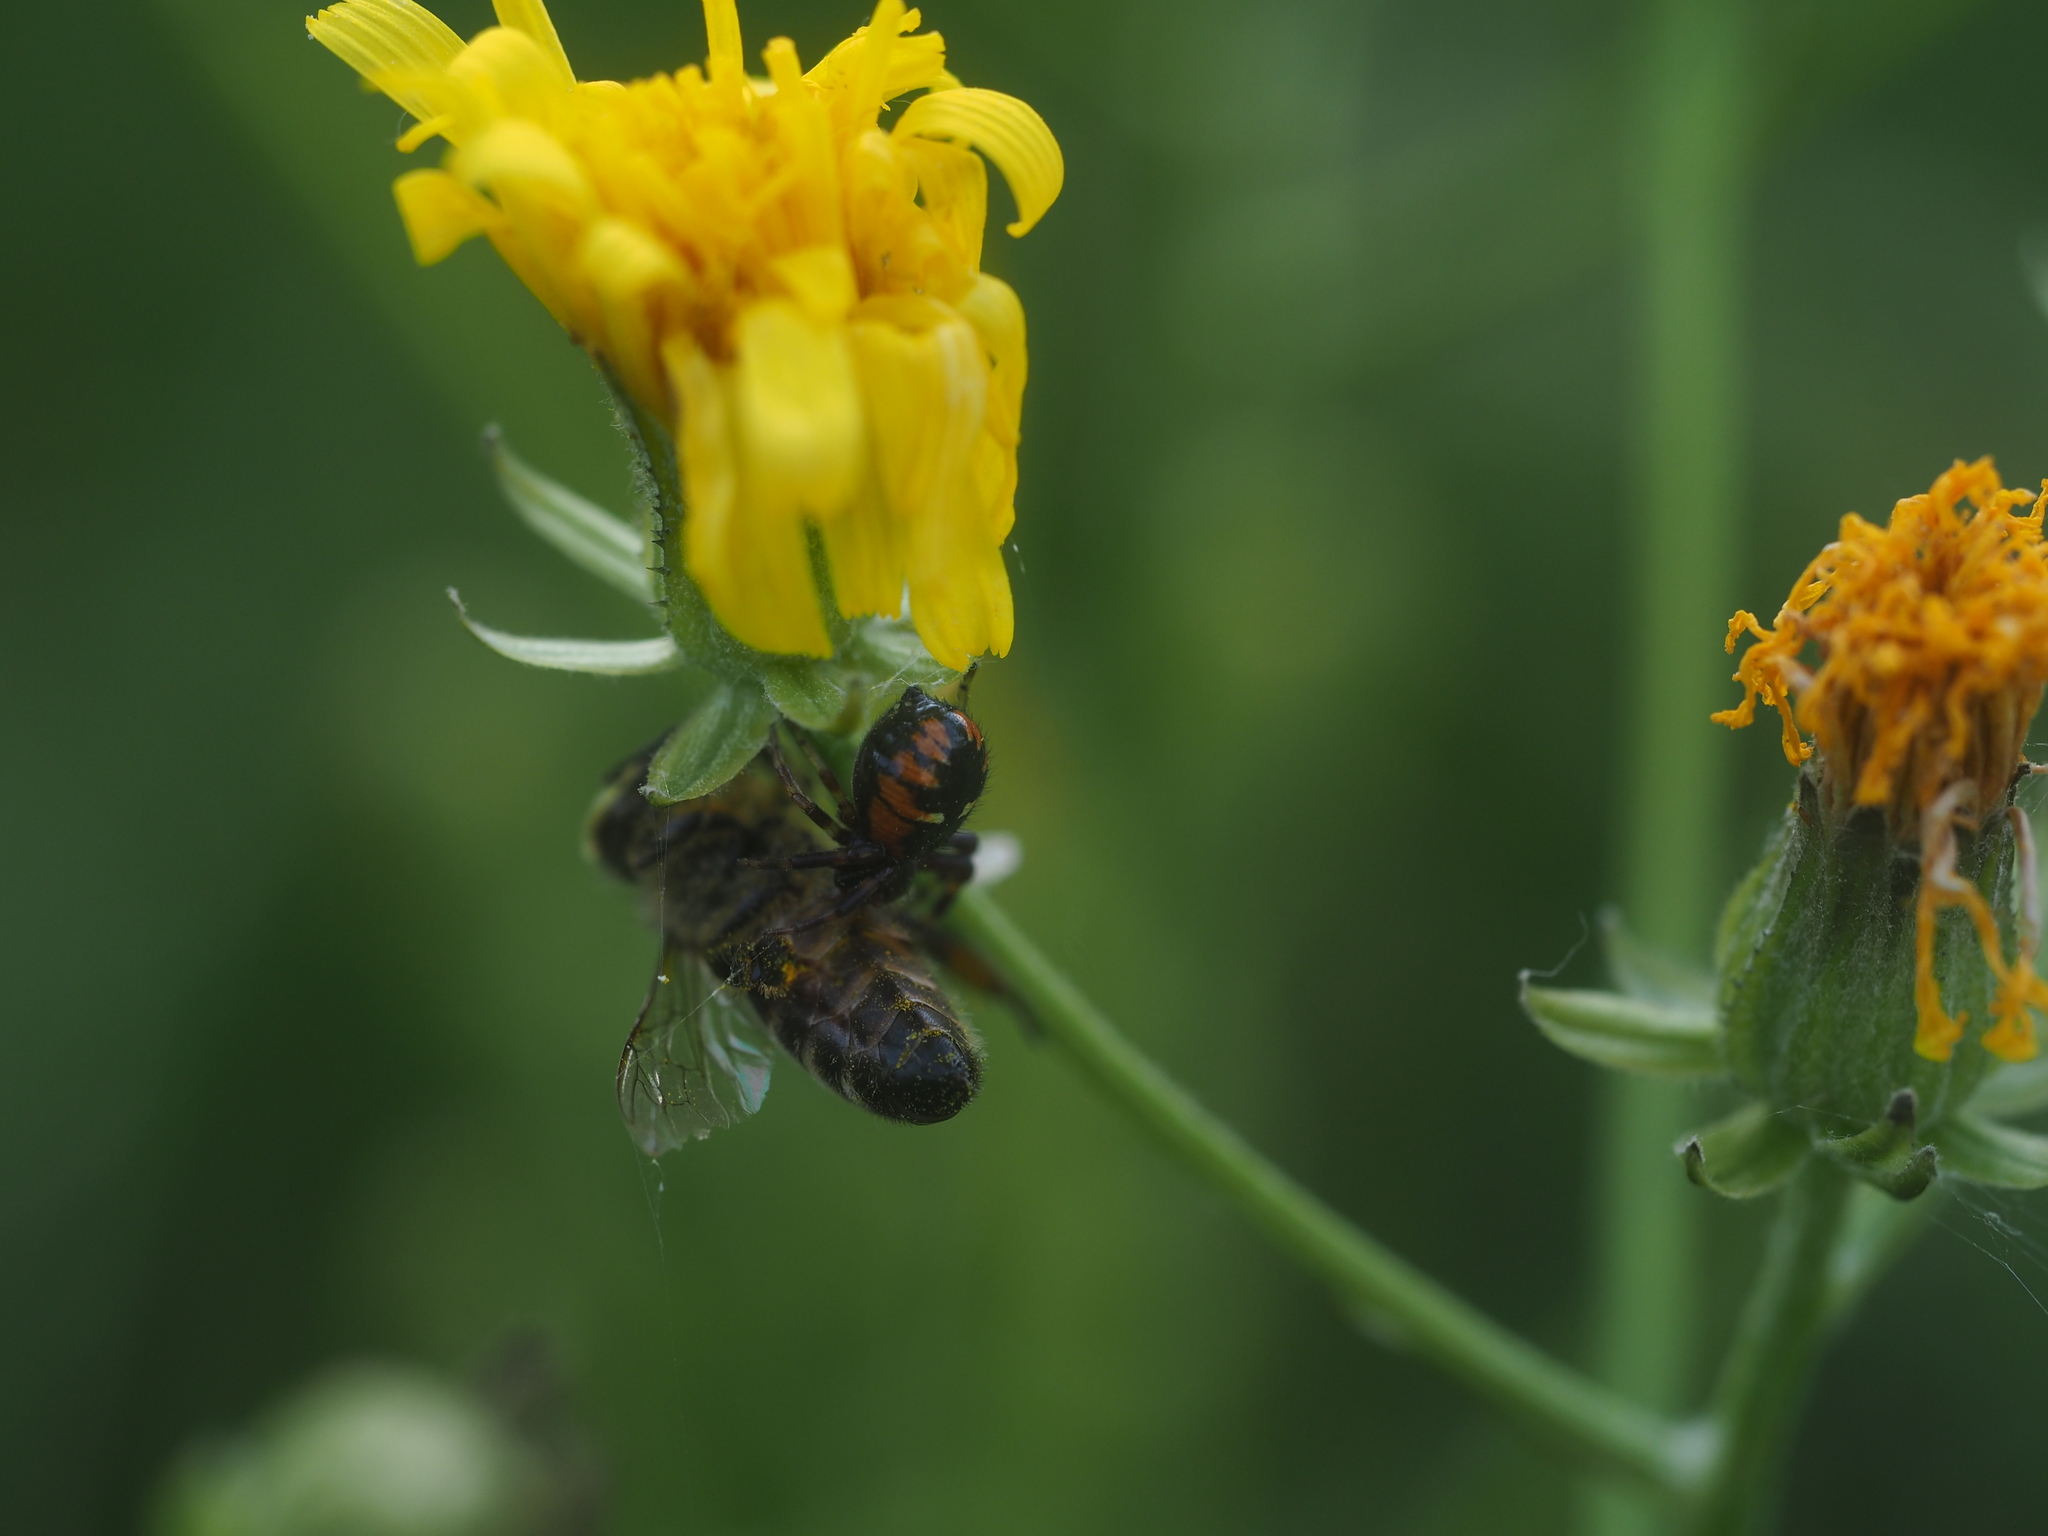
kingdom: Animalia
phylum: Arthropoda
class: Arachnida
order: Araneae
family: Thomisidae
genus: Synema
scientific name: Synema globosum
